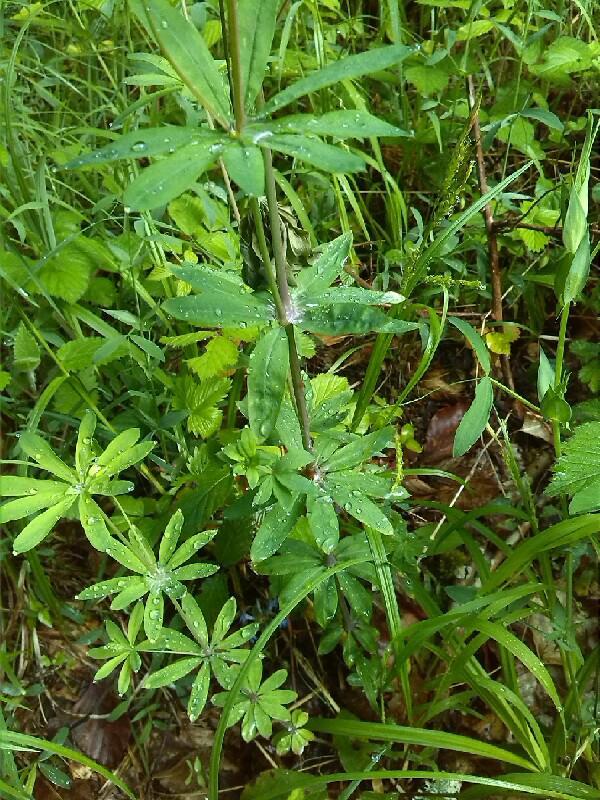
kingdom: Plantae
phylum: Tracheophyta
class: Magnoliopsida
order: Gentianales
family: Rubiaceae
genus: Galium
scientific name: Galium sylvaticum
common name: Wood bedstraw
